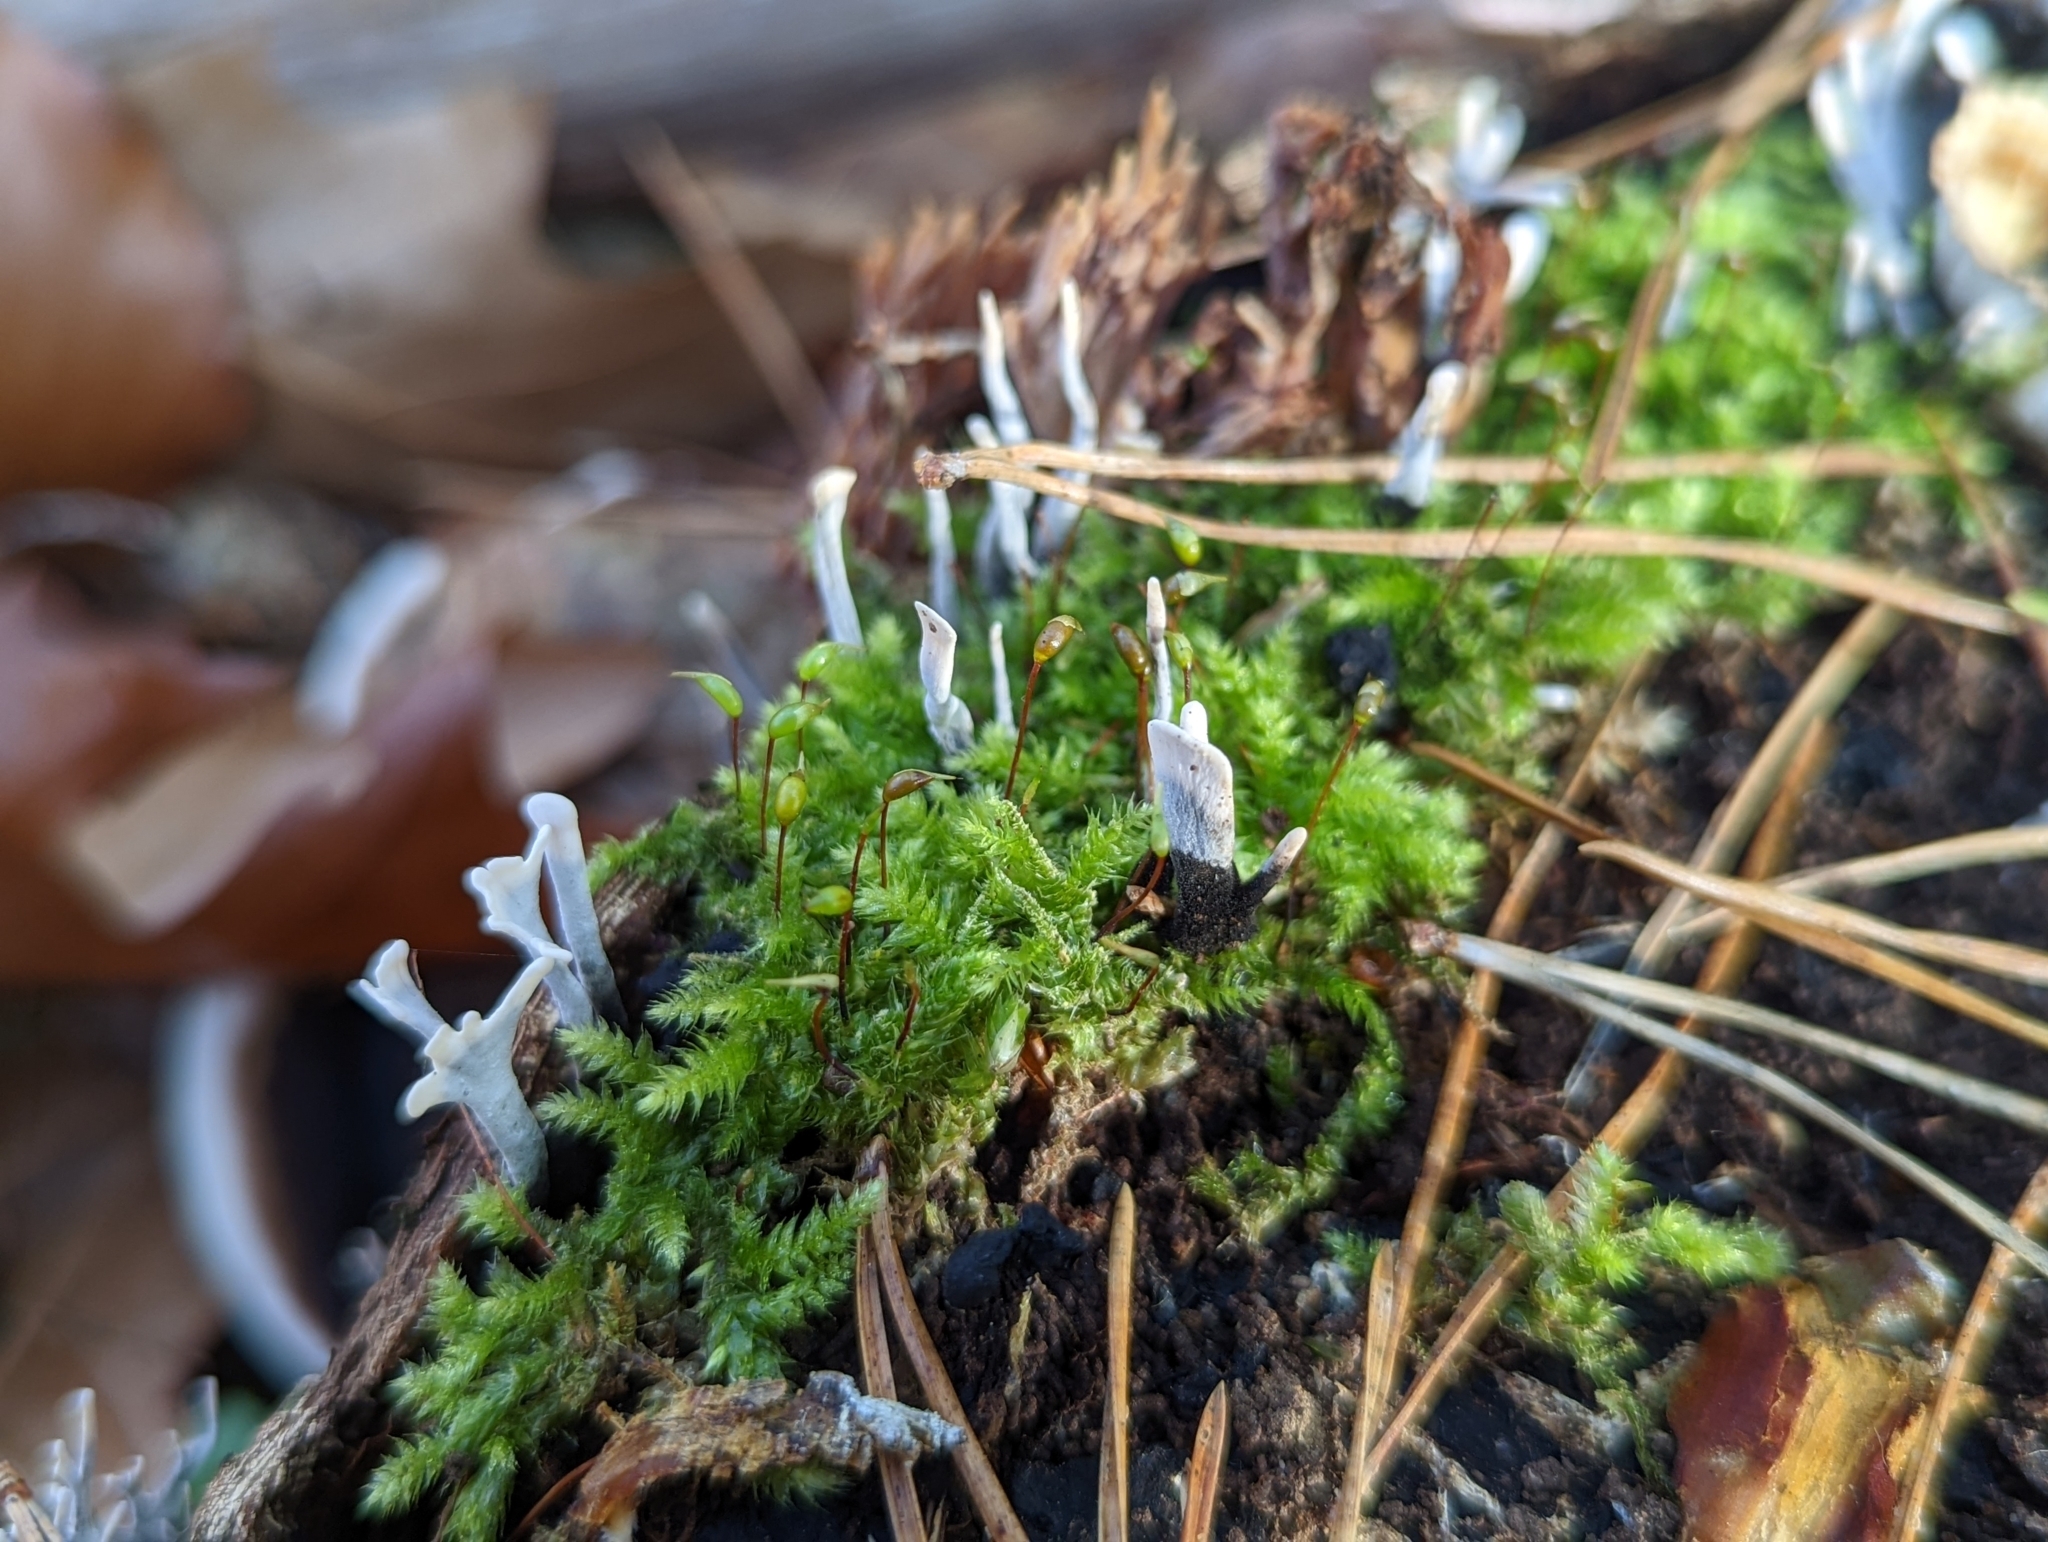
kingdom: Fungi
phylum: Ascomycota
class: Sordariomycetes
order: Xylariales
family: Xylariaceae
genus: Xylaria
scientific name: Xylaria hypoxylon
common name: Candle-snuff fungus
